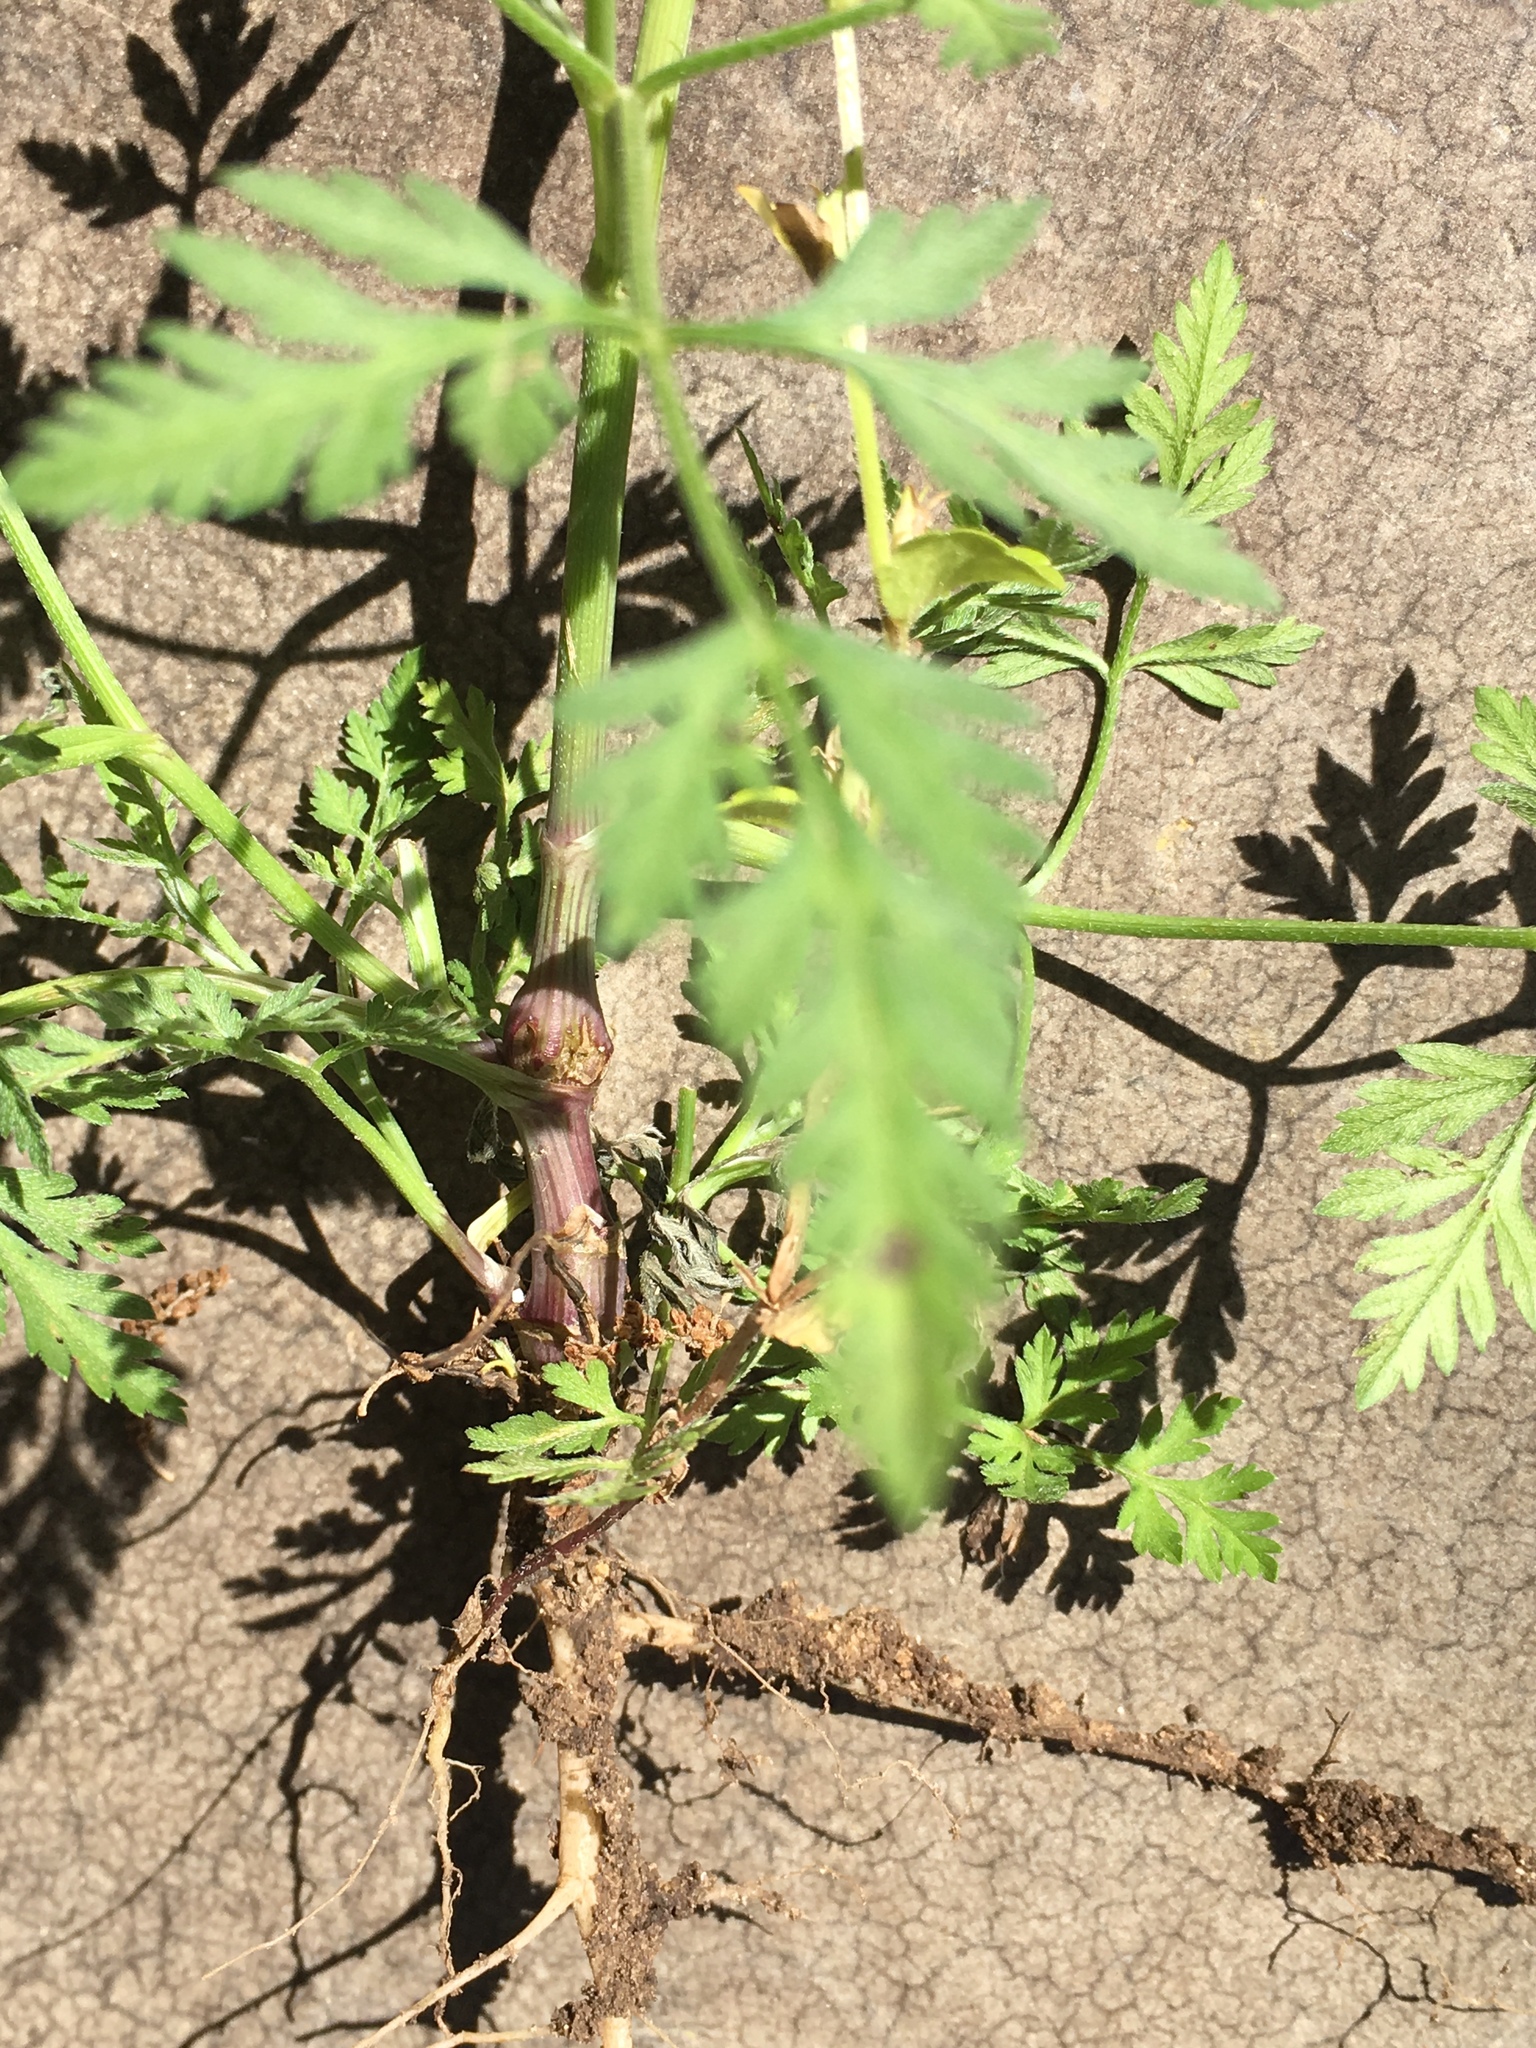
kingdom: Plantae
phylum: Tracheophyta
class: Magnoliopsida
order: Apiales
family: Apiaceae
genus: Torilis
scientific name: Torilis arvensis
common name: Spreading hedge-parsley
